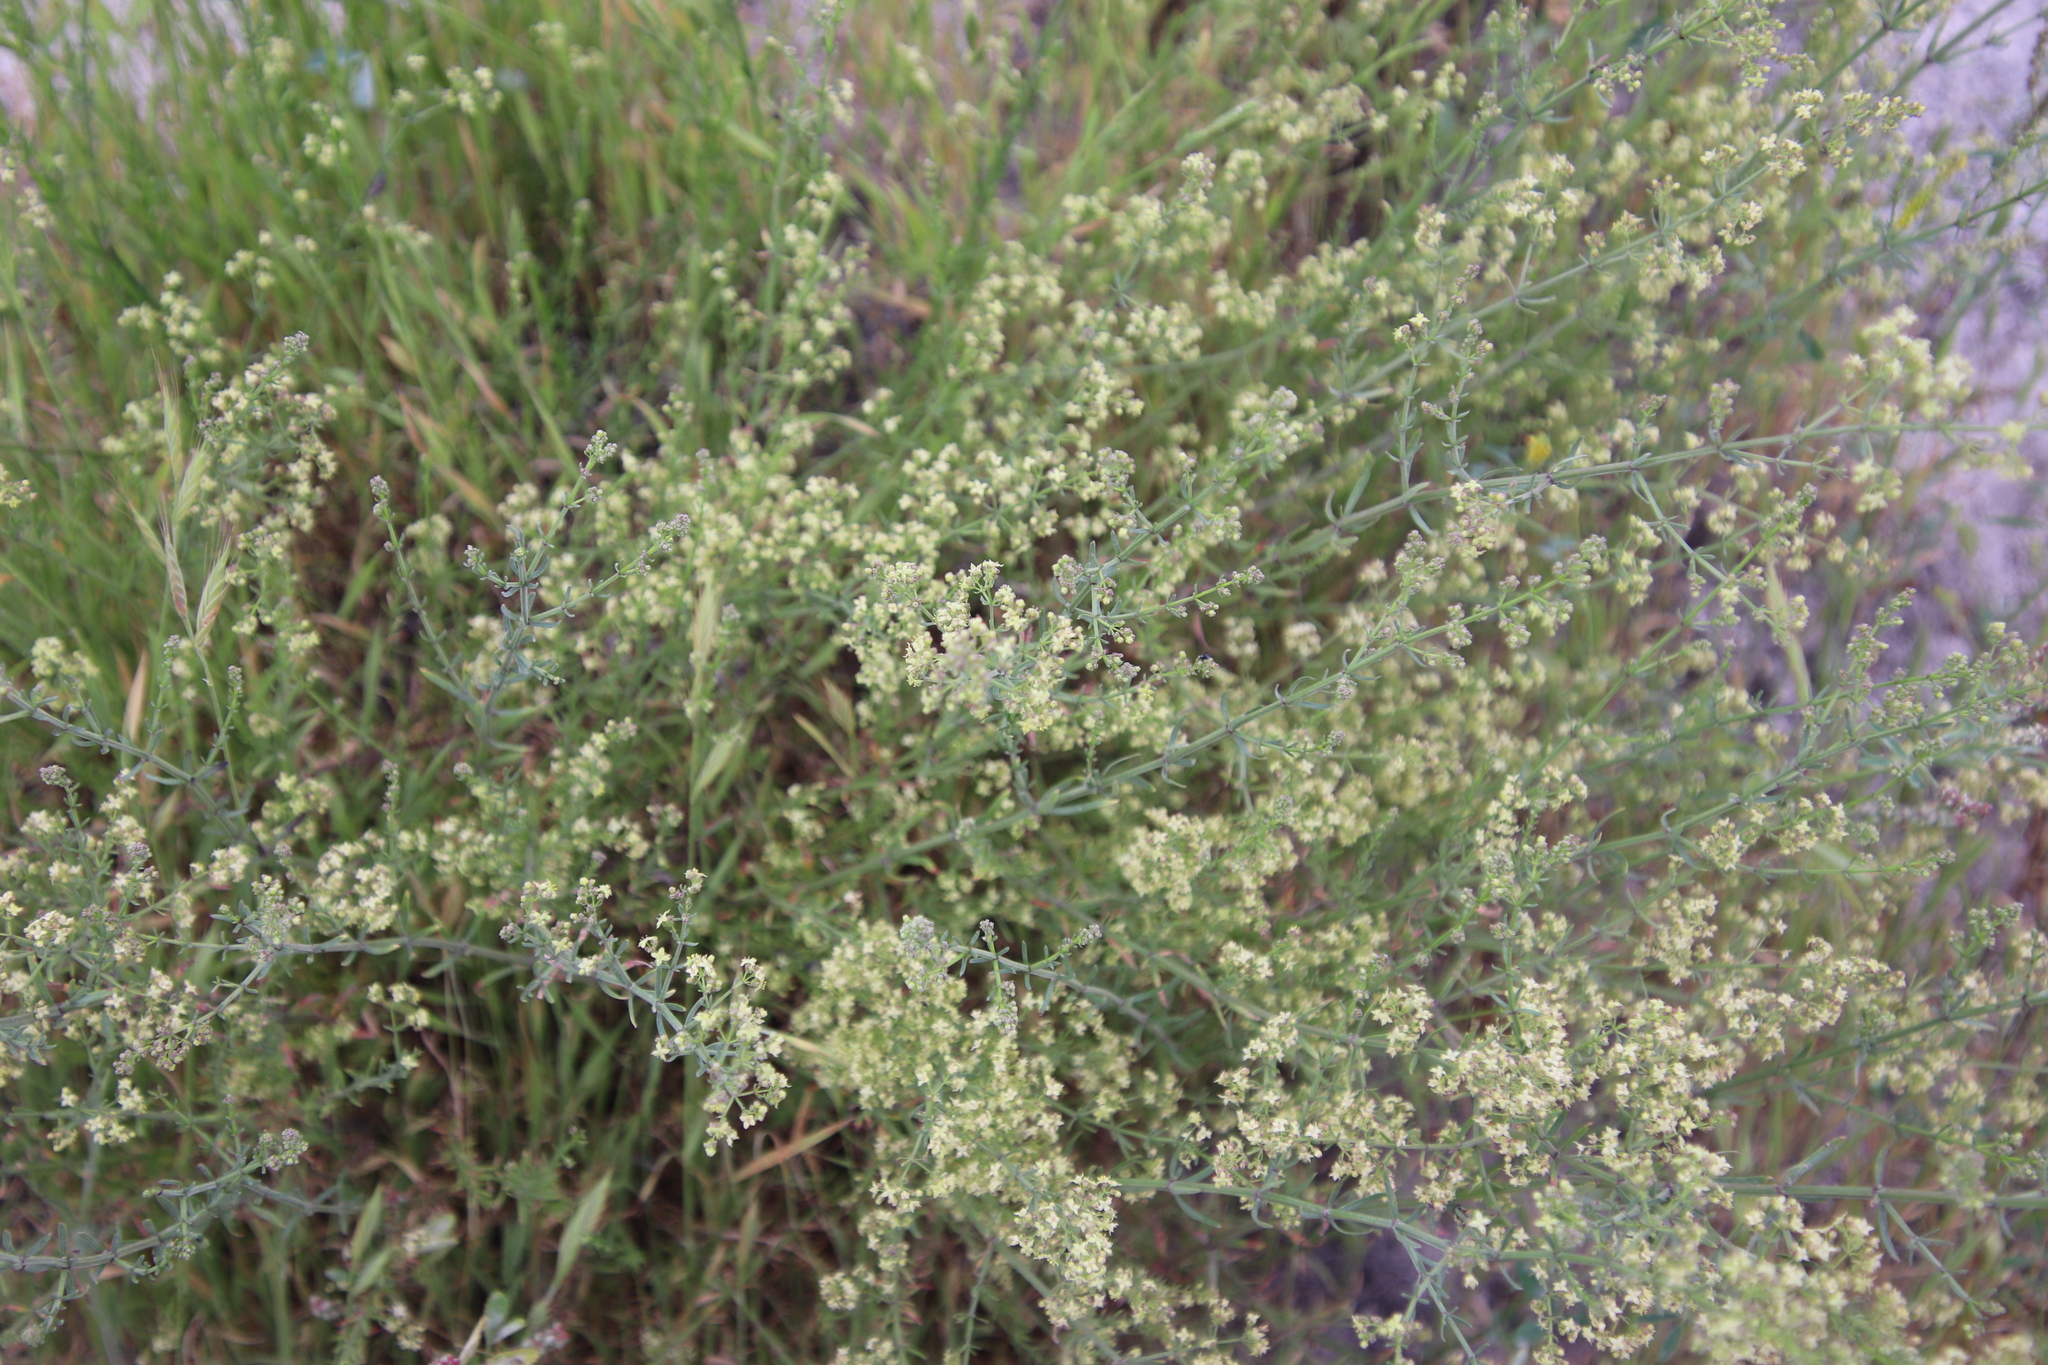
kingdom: Plantae
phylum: Tracheophyta
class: Magnoliopsida
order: Gentianales
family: Rubiaceae
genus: Galium
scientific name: Galium angustifolium
